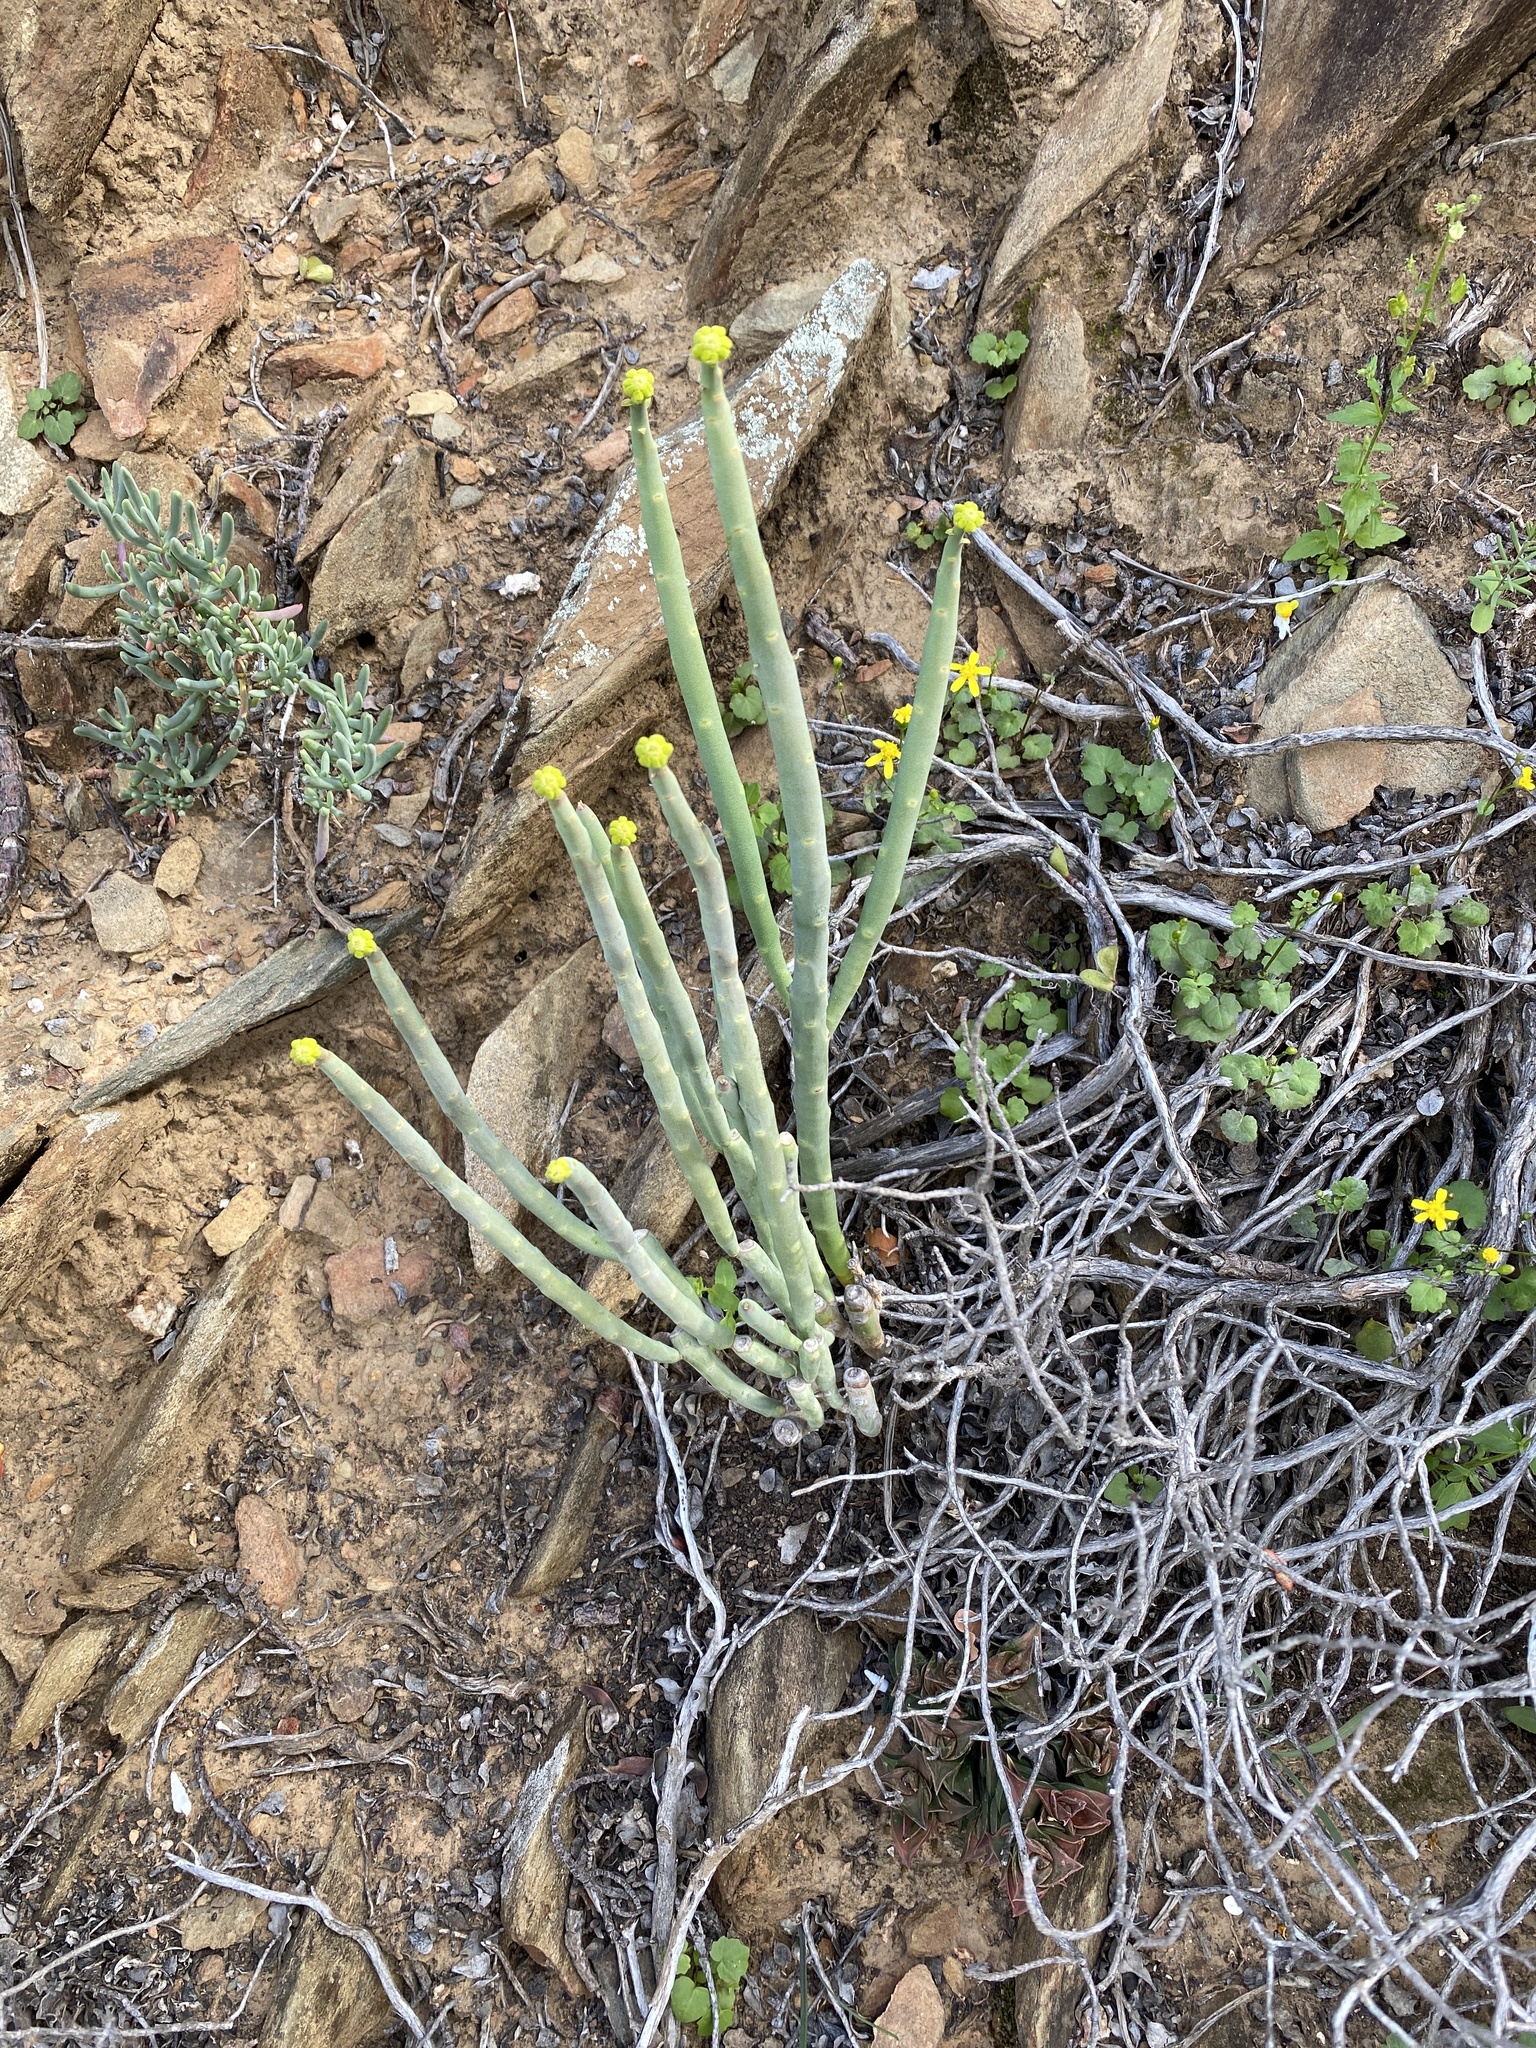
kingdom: Plantae
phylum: Tracheophyta
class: Magnoliopsida
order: Malpighiales
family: Euphorbiaceae
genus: Euphorbia
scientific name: Euphorbia mauritanica
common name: Jackal's-food
